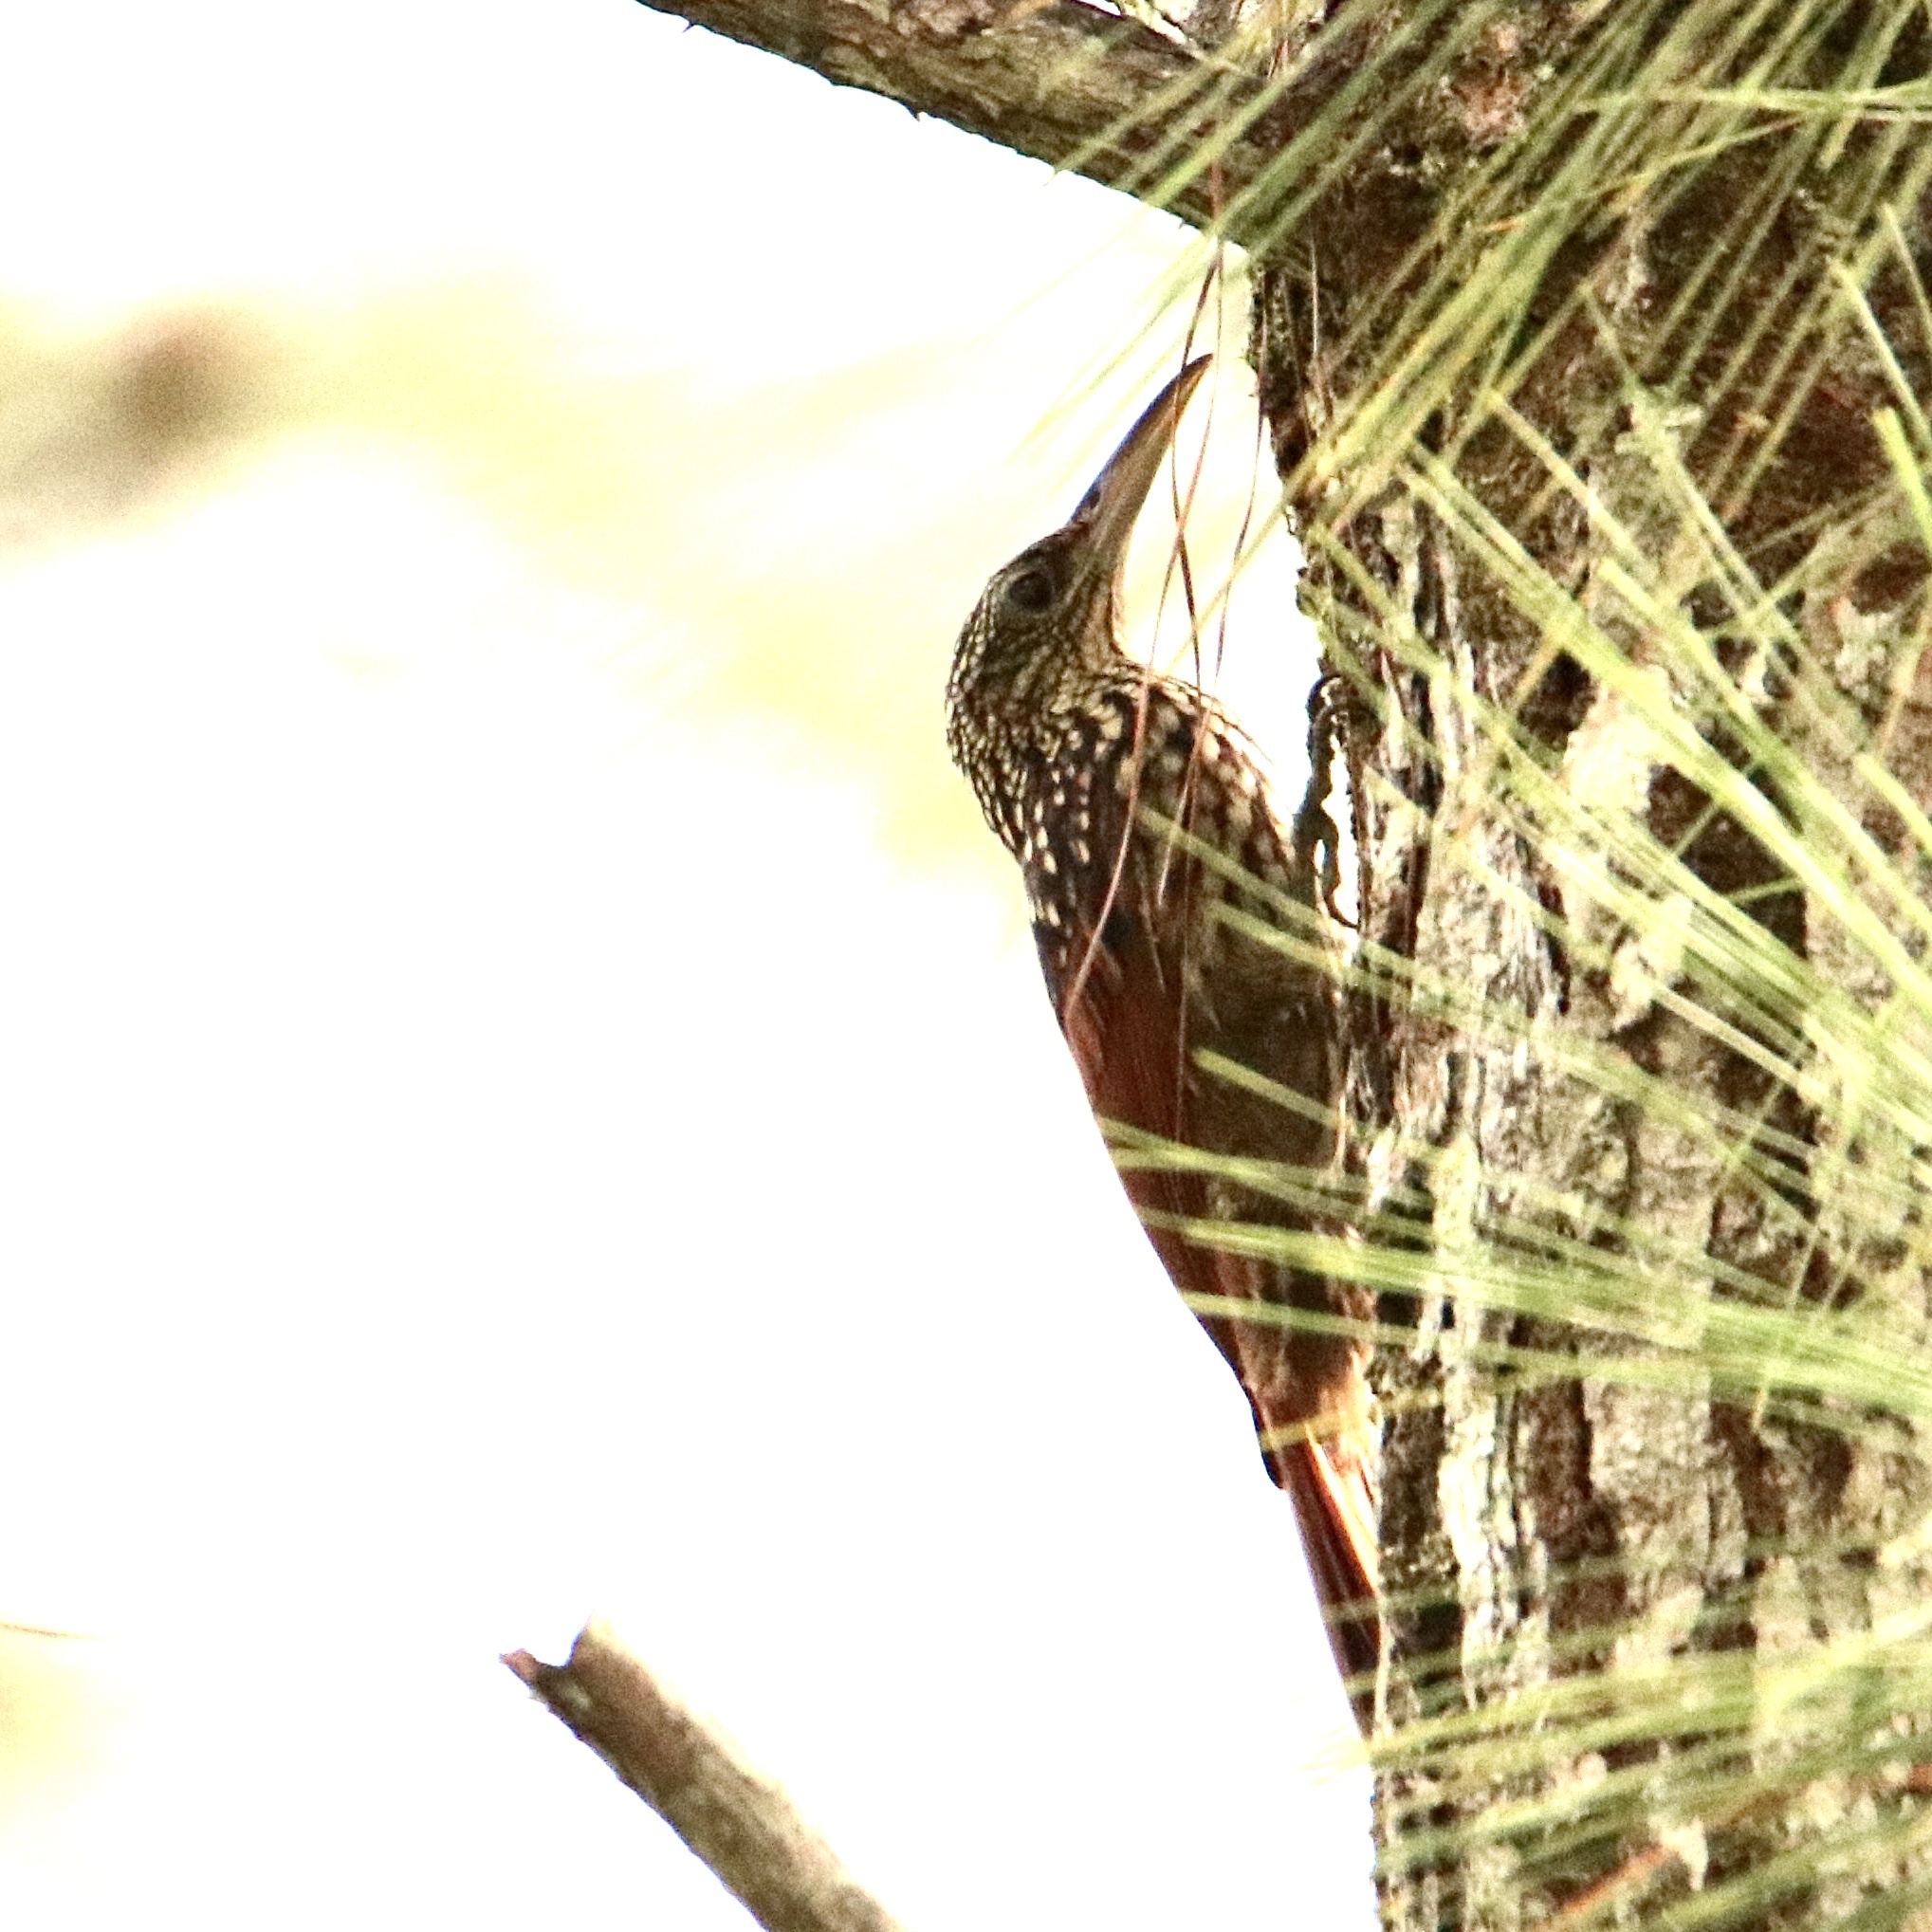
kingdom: Animalia
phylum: Chordata
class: Aves
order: Passeriformes
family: Furnariidae
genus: Xiphorhynchus
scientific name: Xiphorhynchus lachrymosus
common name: Black-striped woodcreeper
